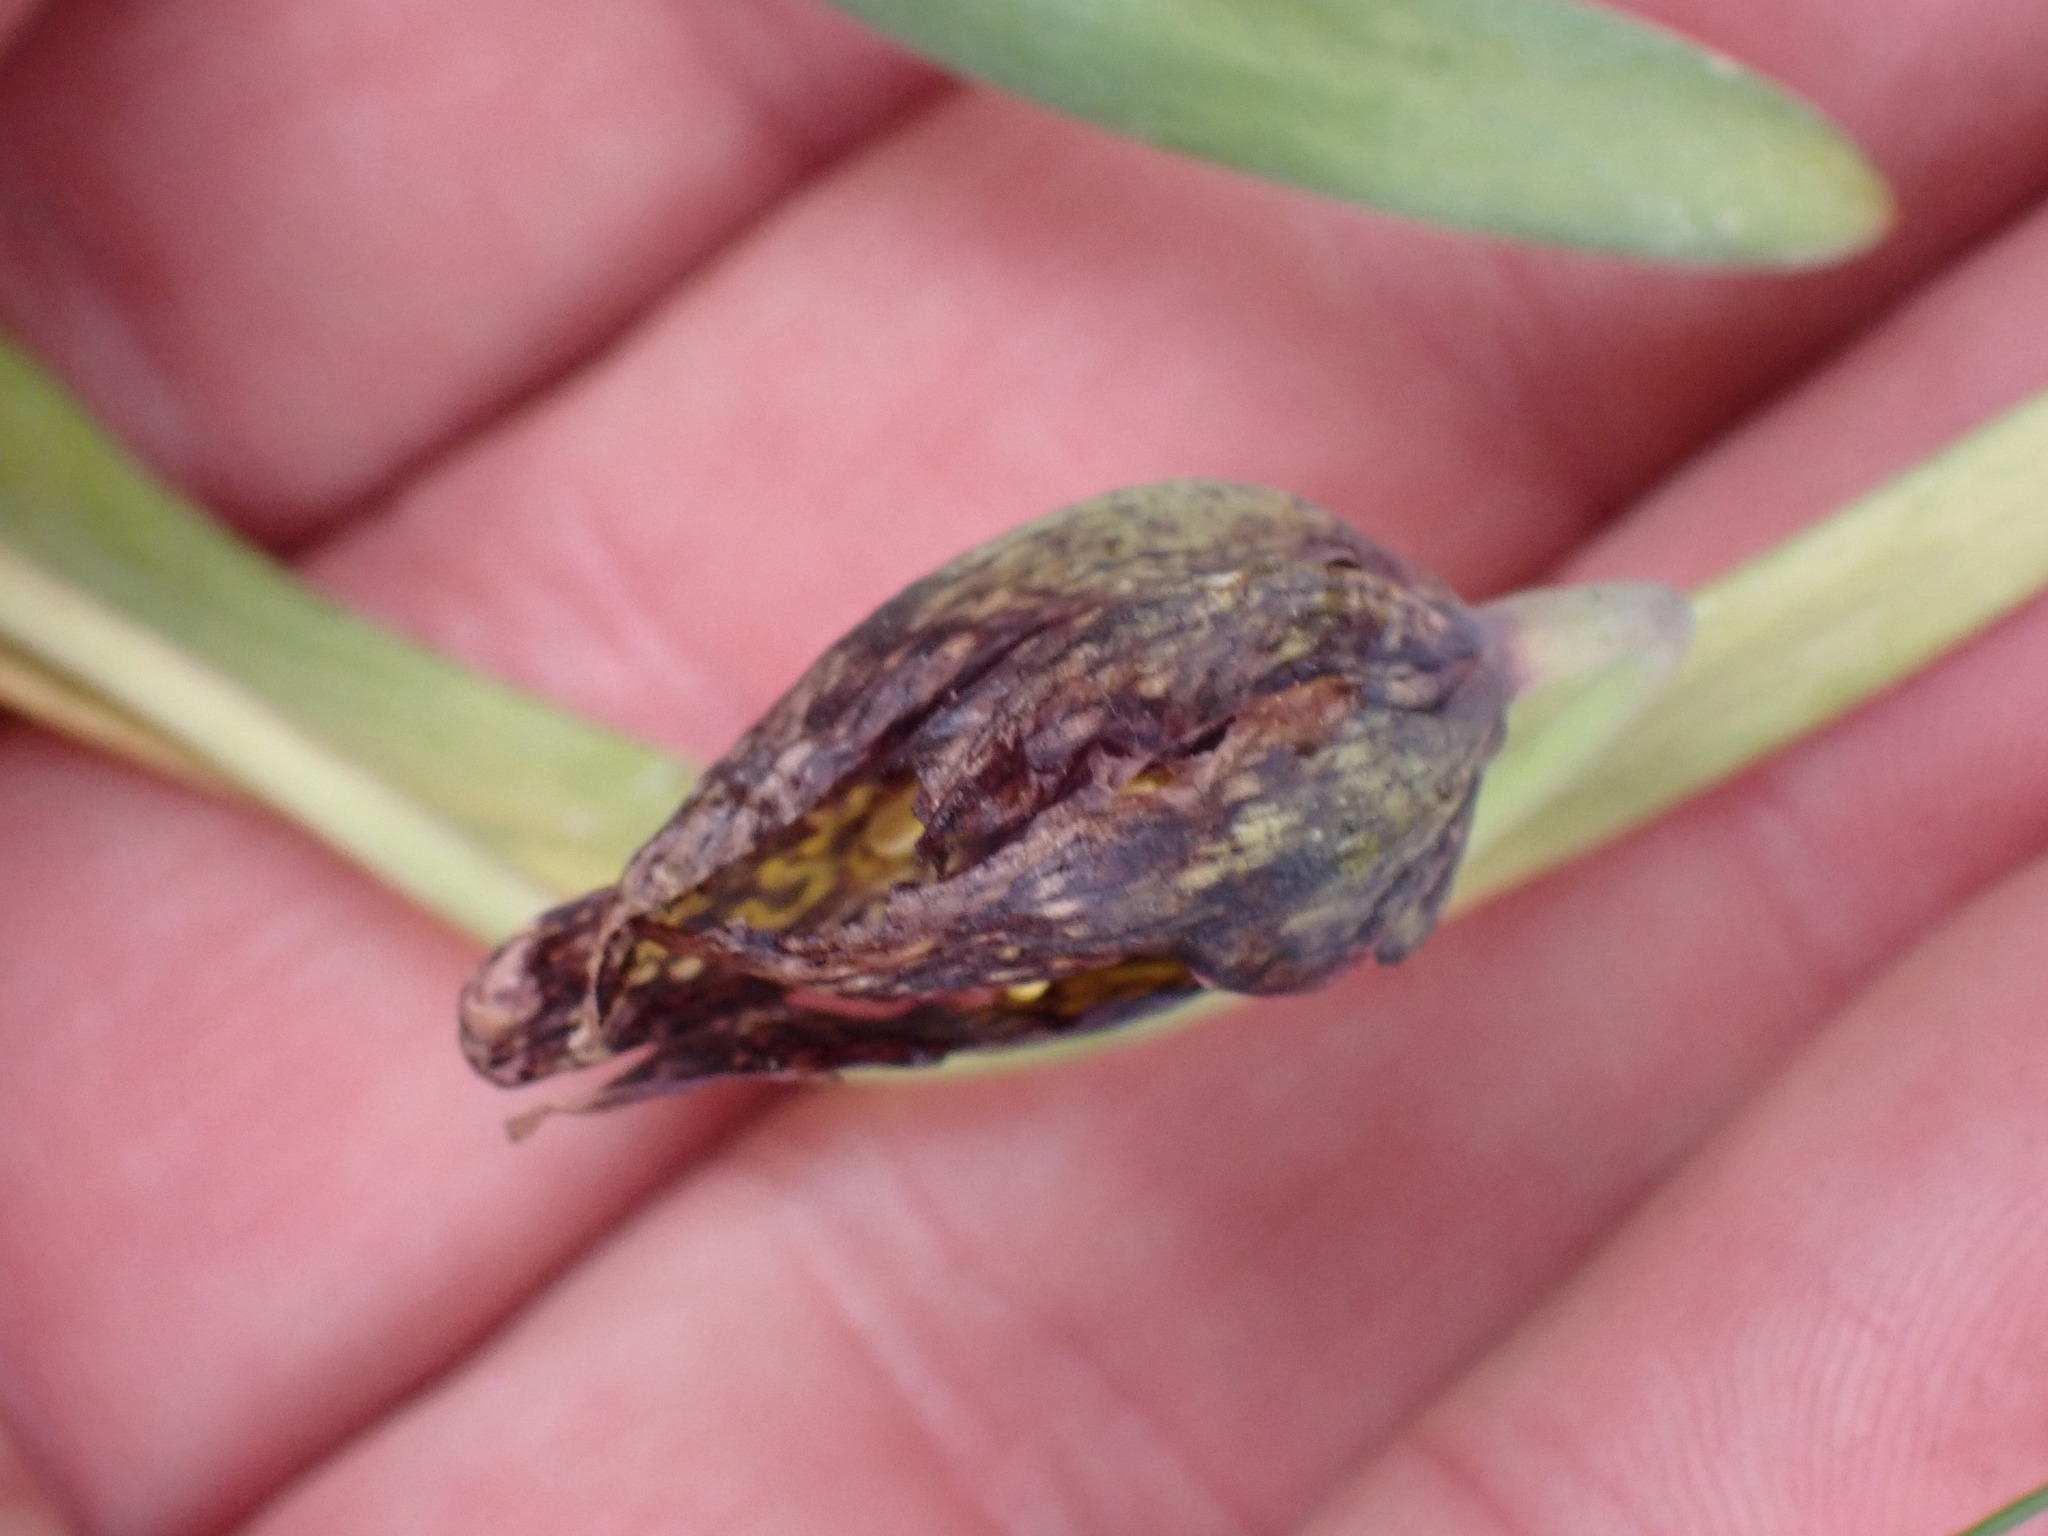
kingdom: Plantae
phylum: Tracheophyta
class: Liliopsida
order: Liliales
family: Liliaceae
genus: Fritillaria
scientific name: Fritillaria affinis
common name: Ojai fritillary
